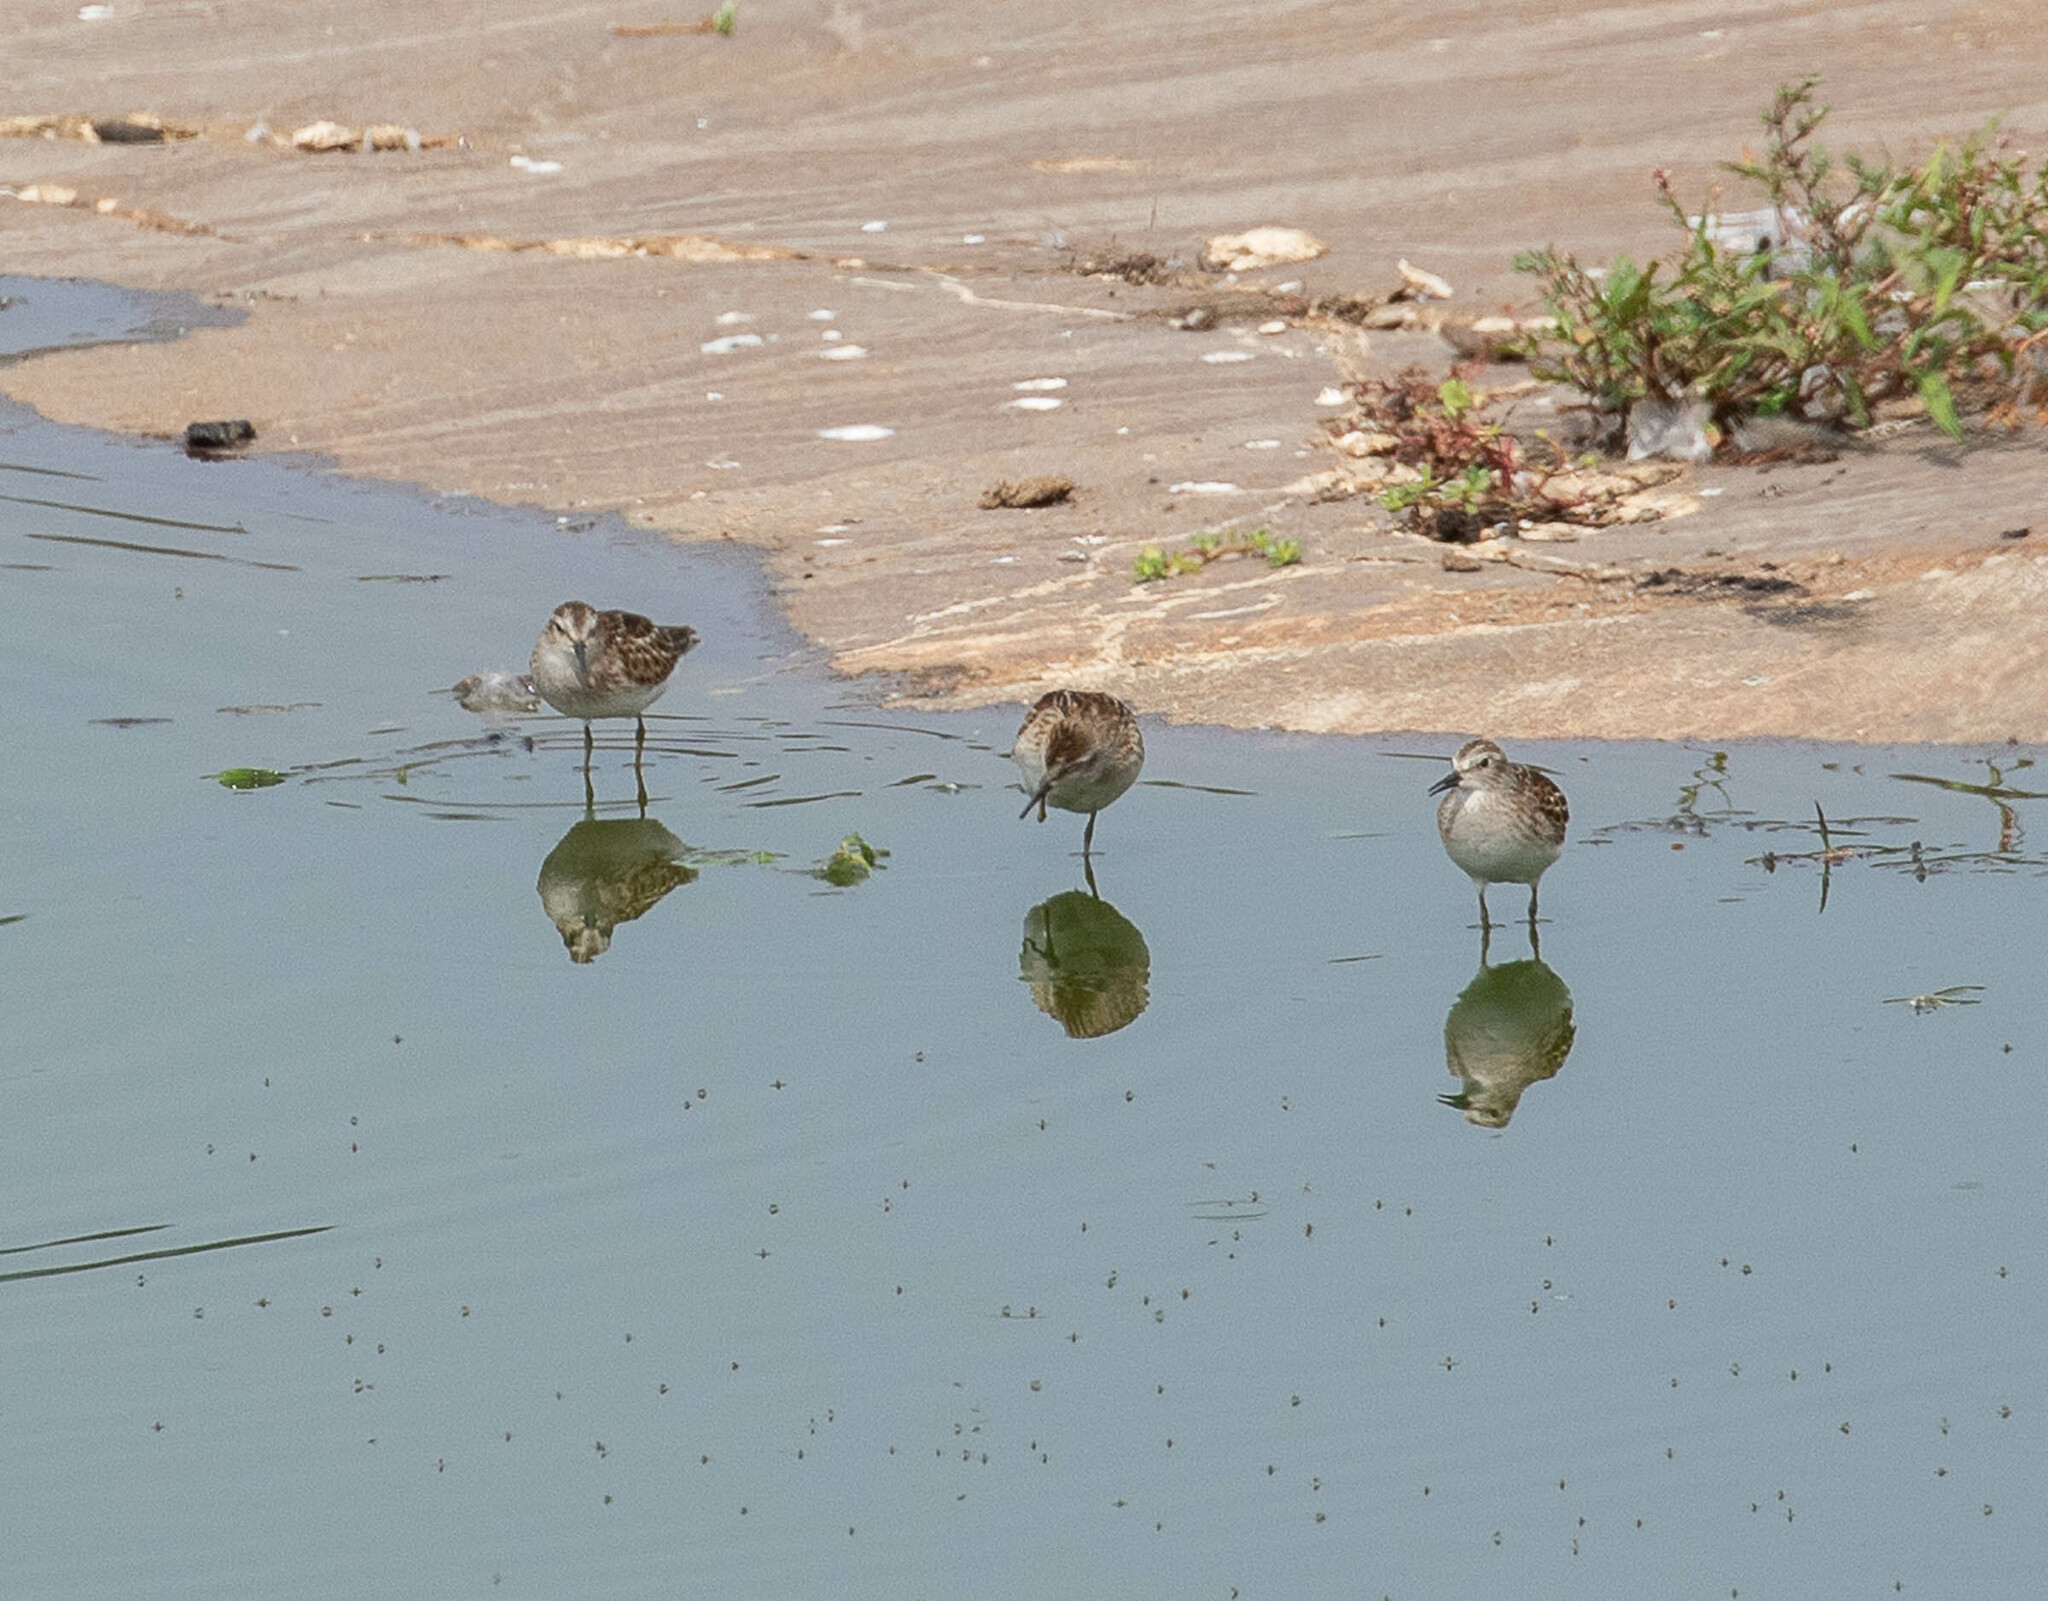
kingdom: Animalia
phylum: Chordata
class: Aves
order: Charadriiformes
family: Scolopacidae
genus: Calidris
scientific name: Calidris minutilla
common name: Least sandpiper
